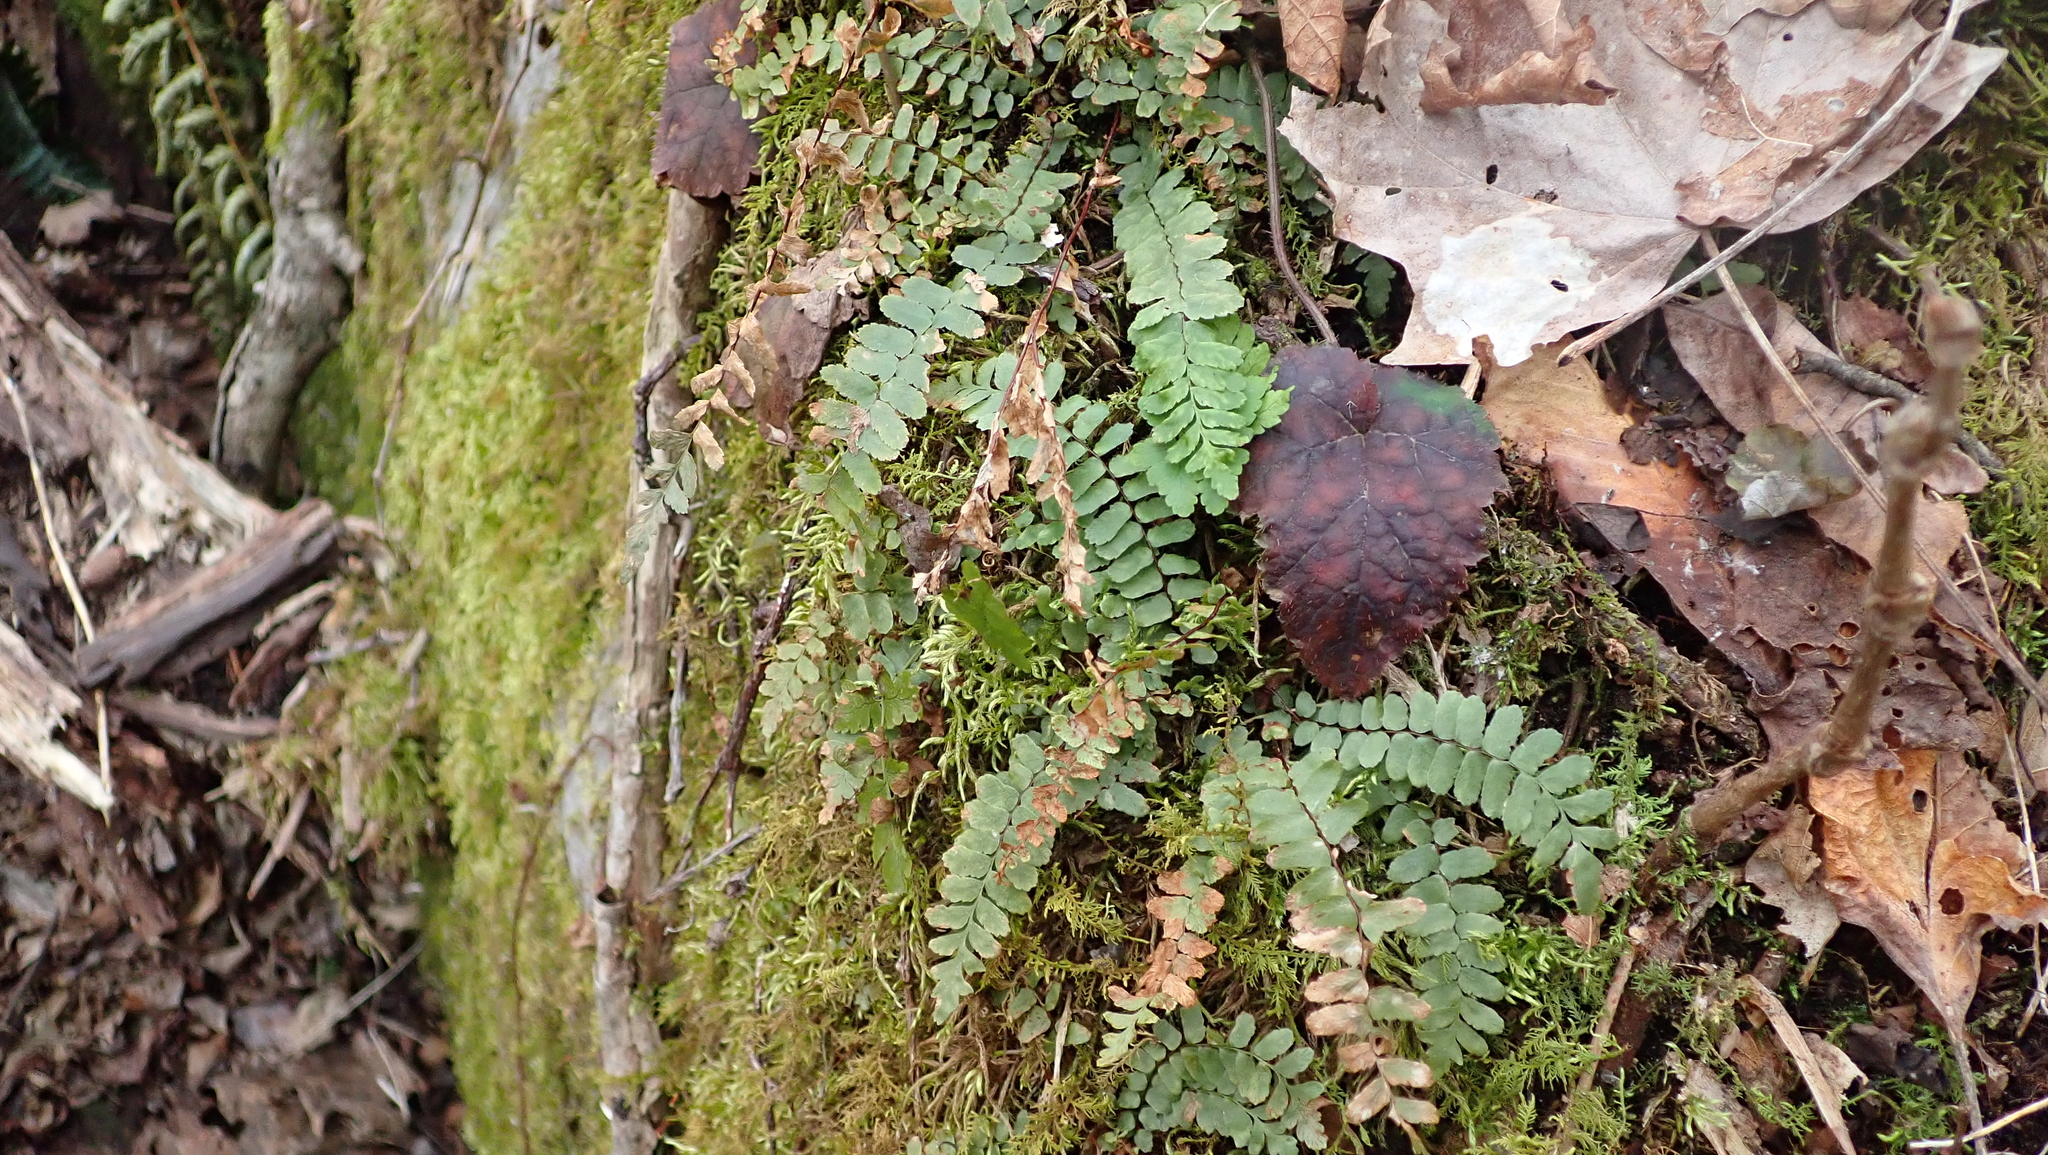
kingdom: Plantae
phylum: Tracheophyta
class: Polypodiopsida
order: Polypodiales
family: Aspleniaceae
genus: Asplenium
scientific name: Asplenium trichomanes
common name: Maidenhair spleenwort
